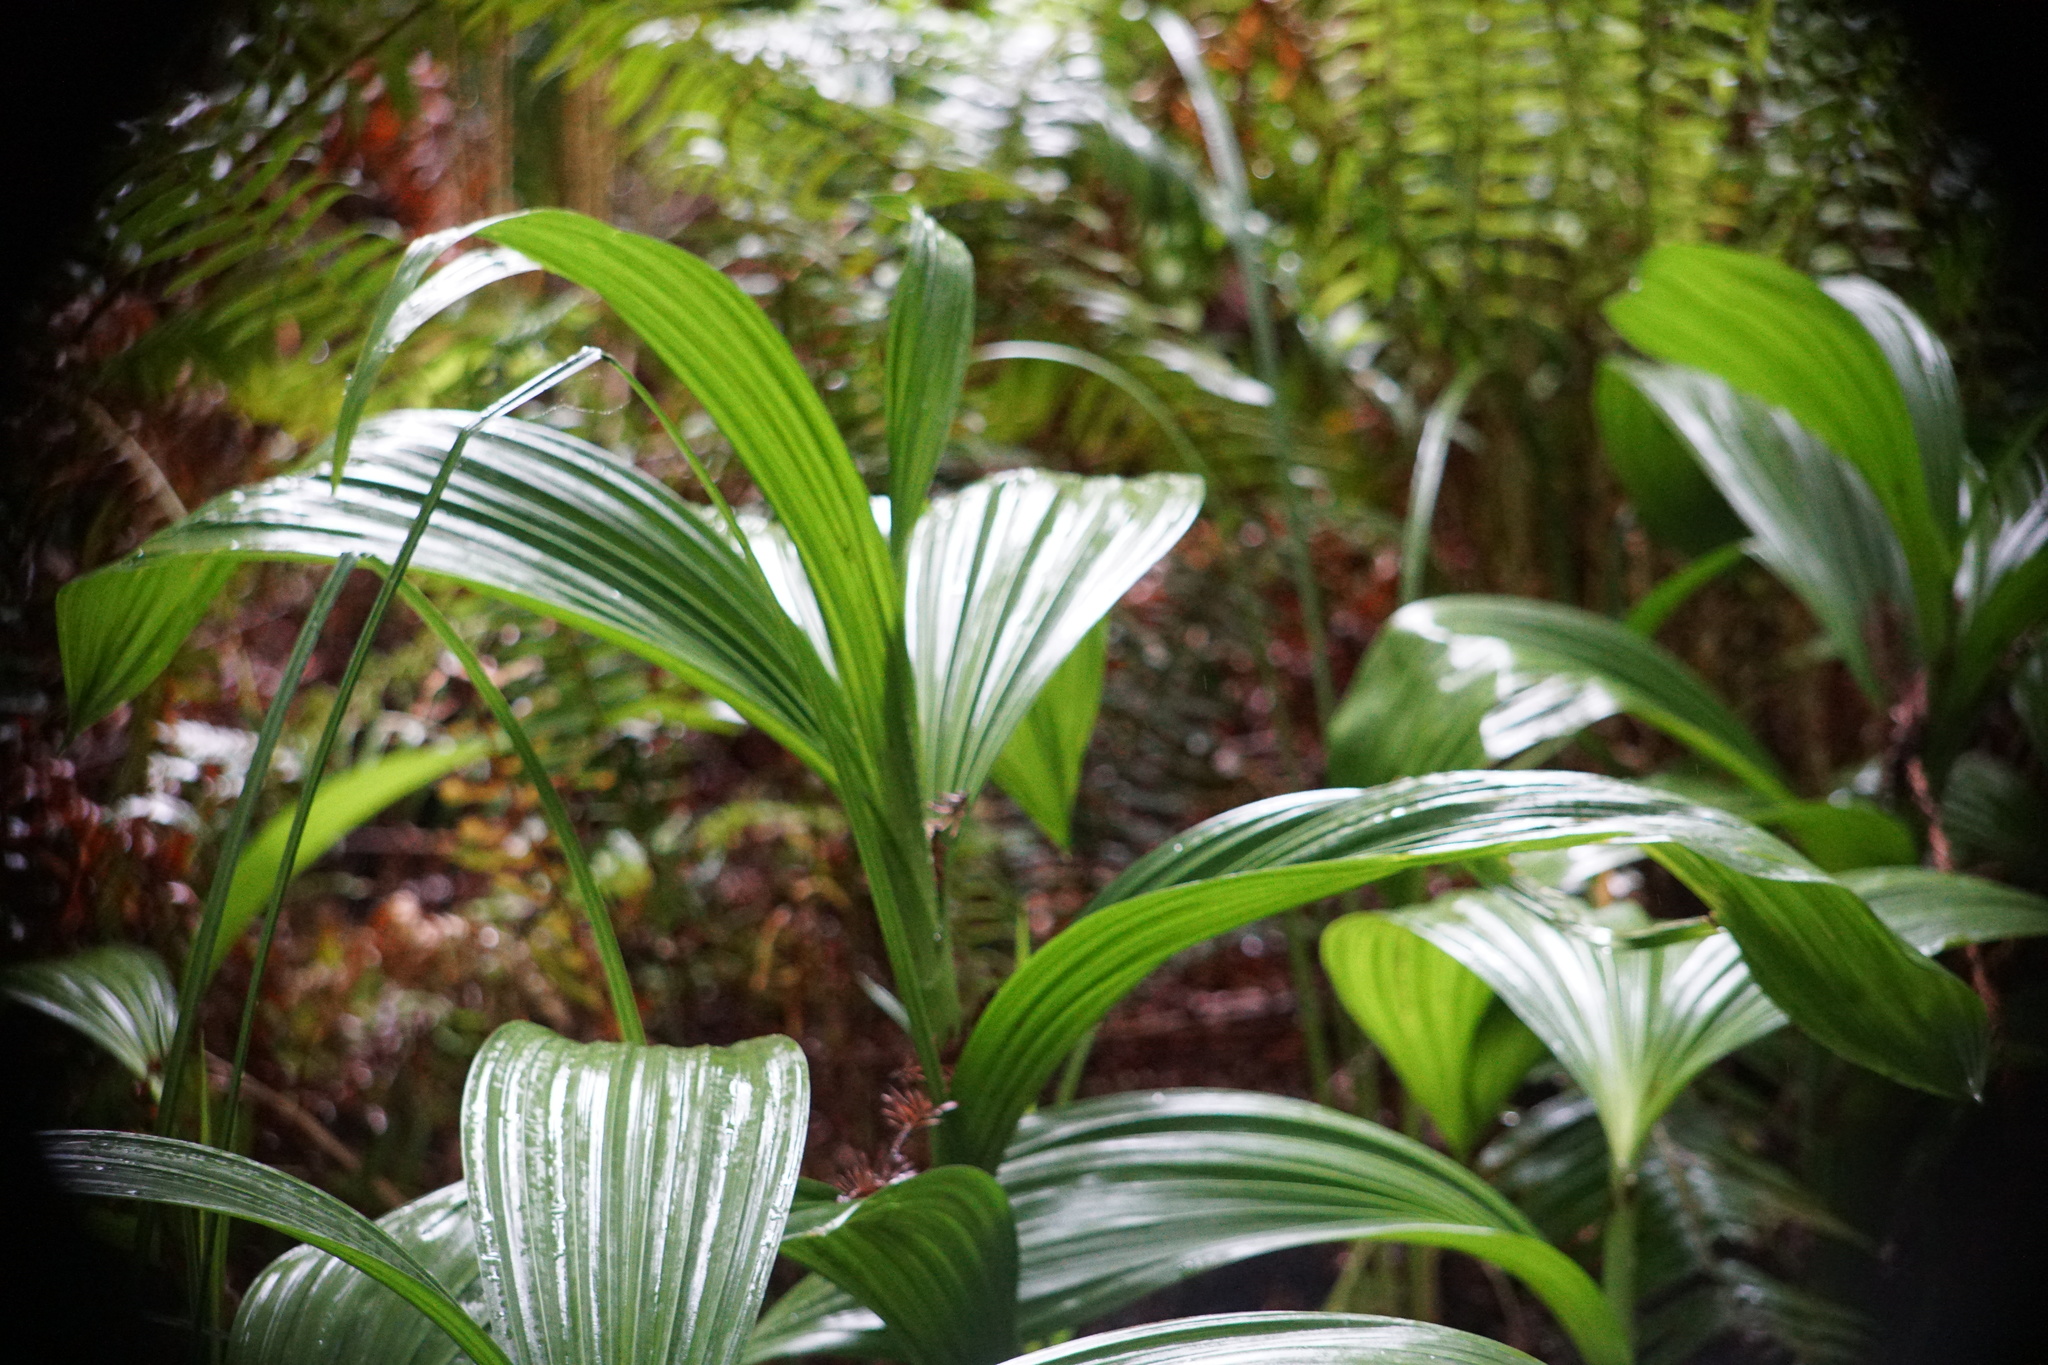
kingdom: Plantae
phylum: Tracheophyta
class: Liliopsida
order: Liliales
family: Melanthiaceae
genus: Veratrum
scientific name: Veratrum fimbriatum
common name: Fringe false hellobore
